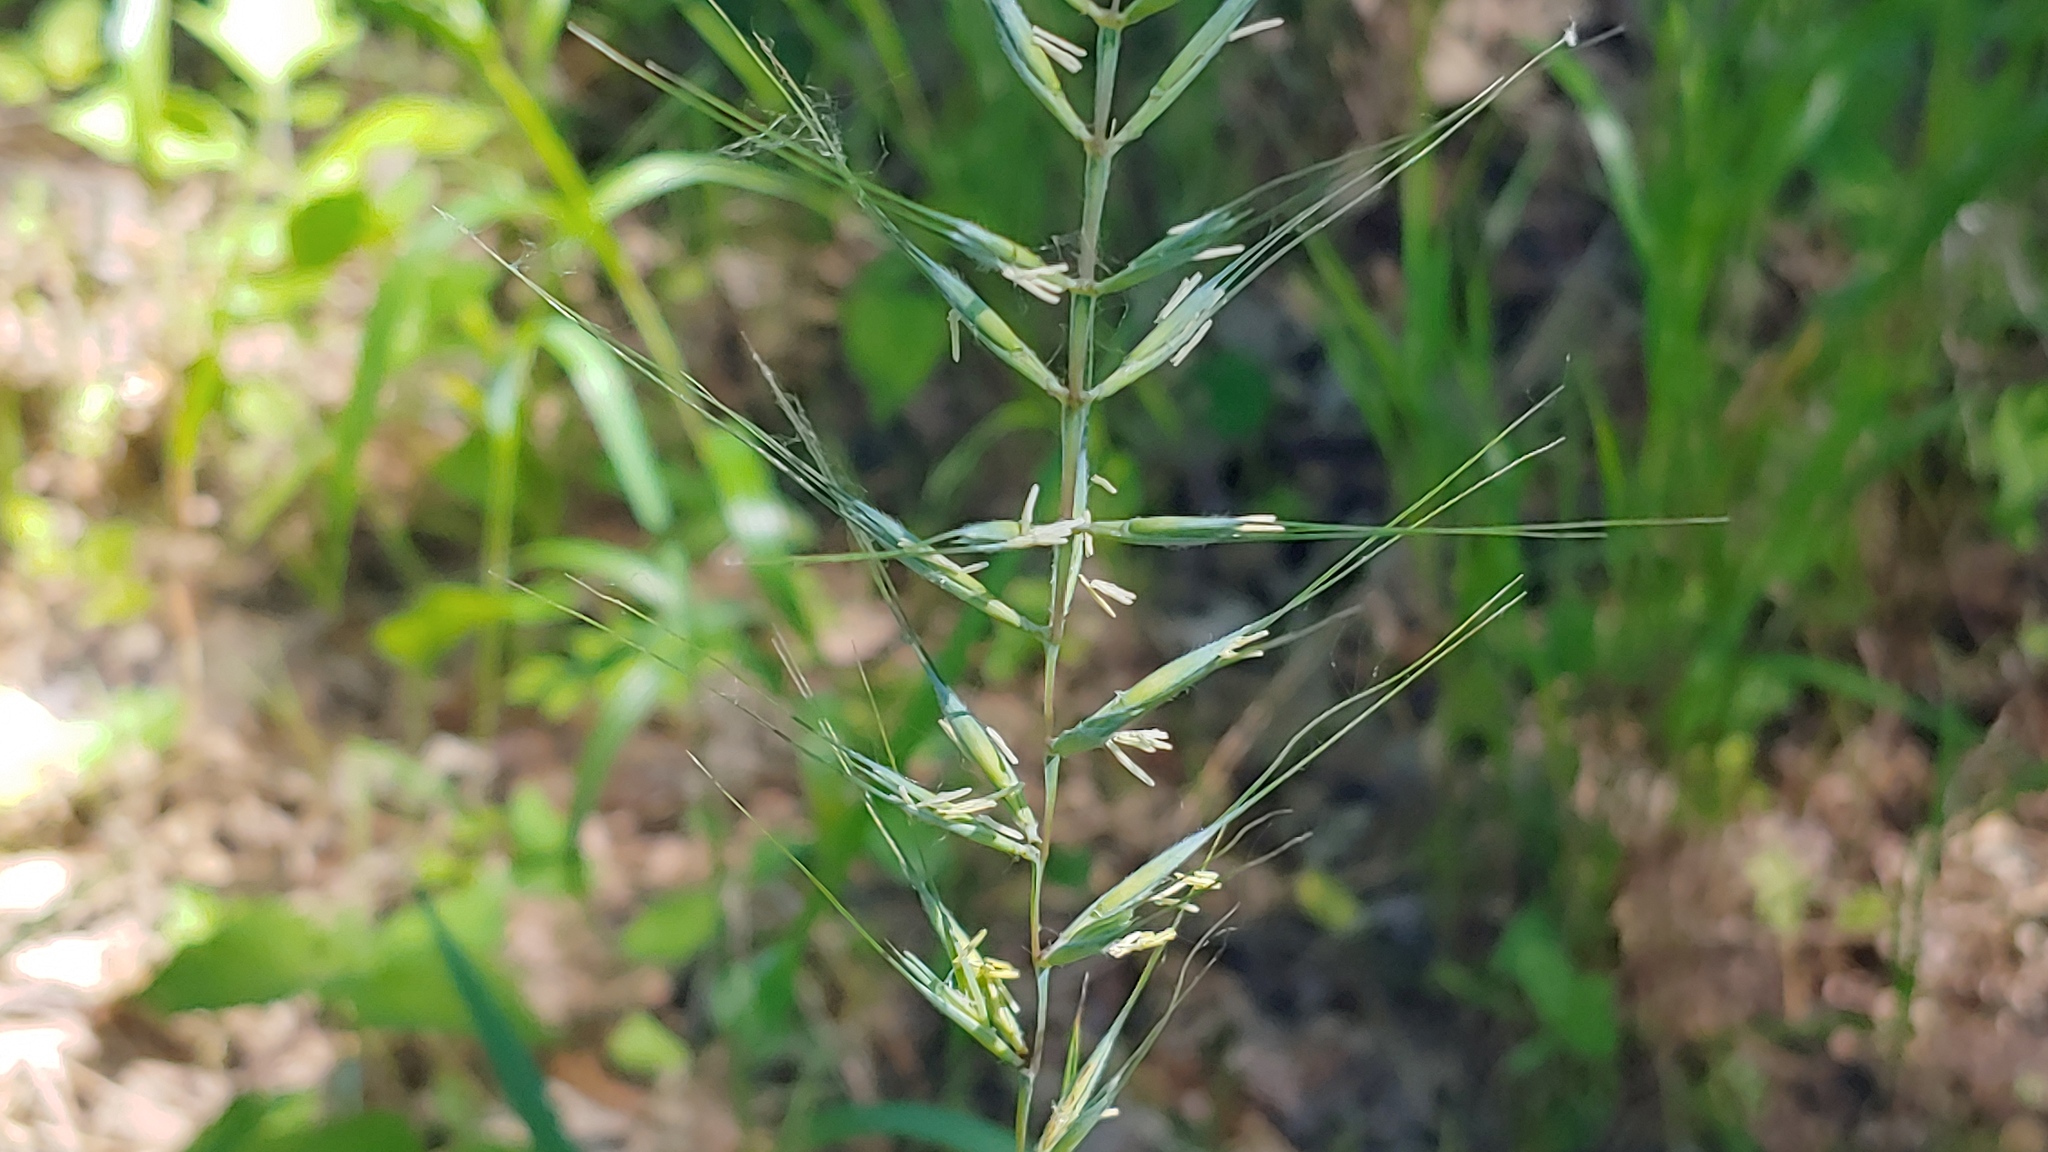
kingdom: Plantae
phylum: Tracheophyta
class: Liliopsida
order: Poales
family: Poaceae
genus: Elymus
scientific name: Elymus hystrix
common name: Bottlebrush grass
